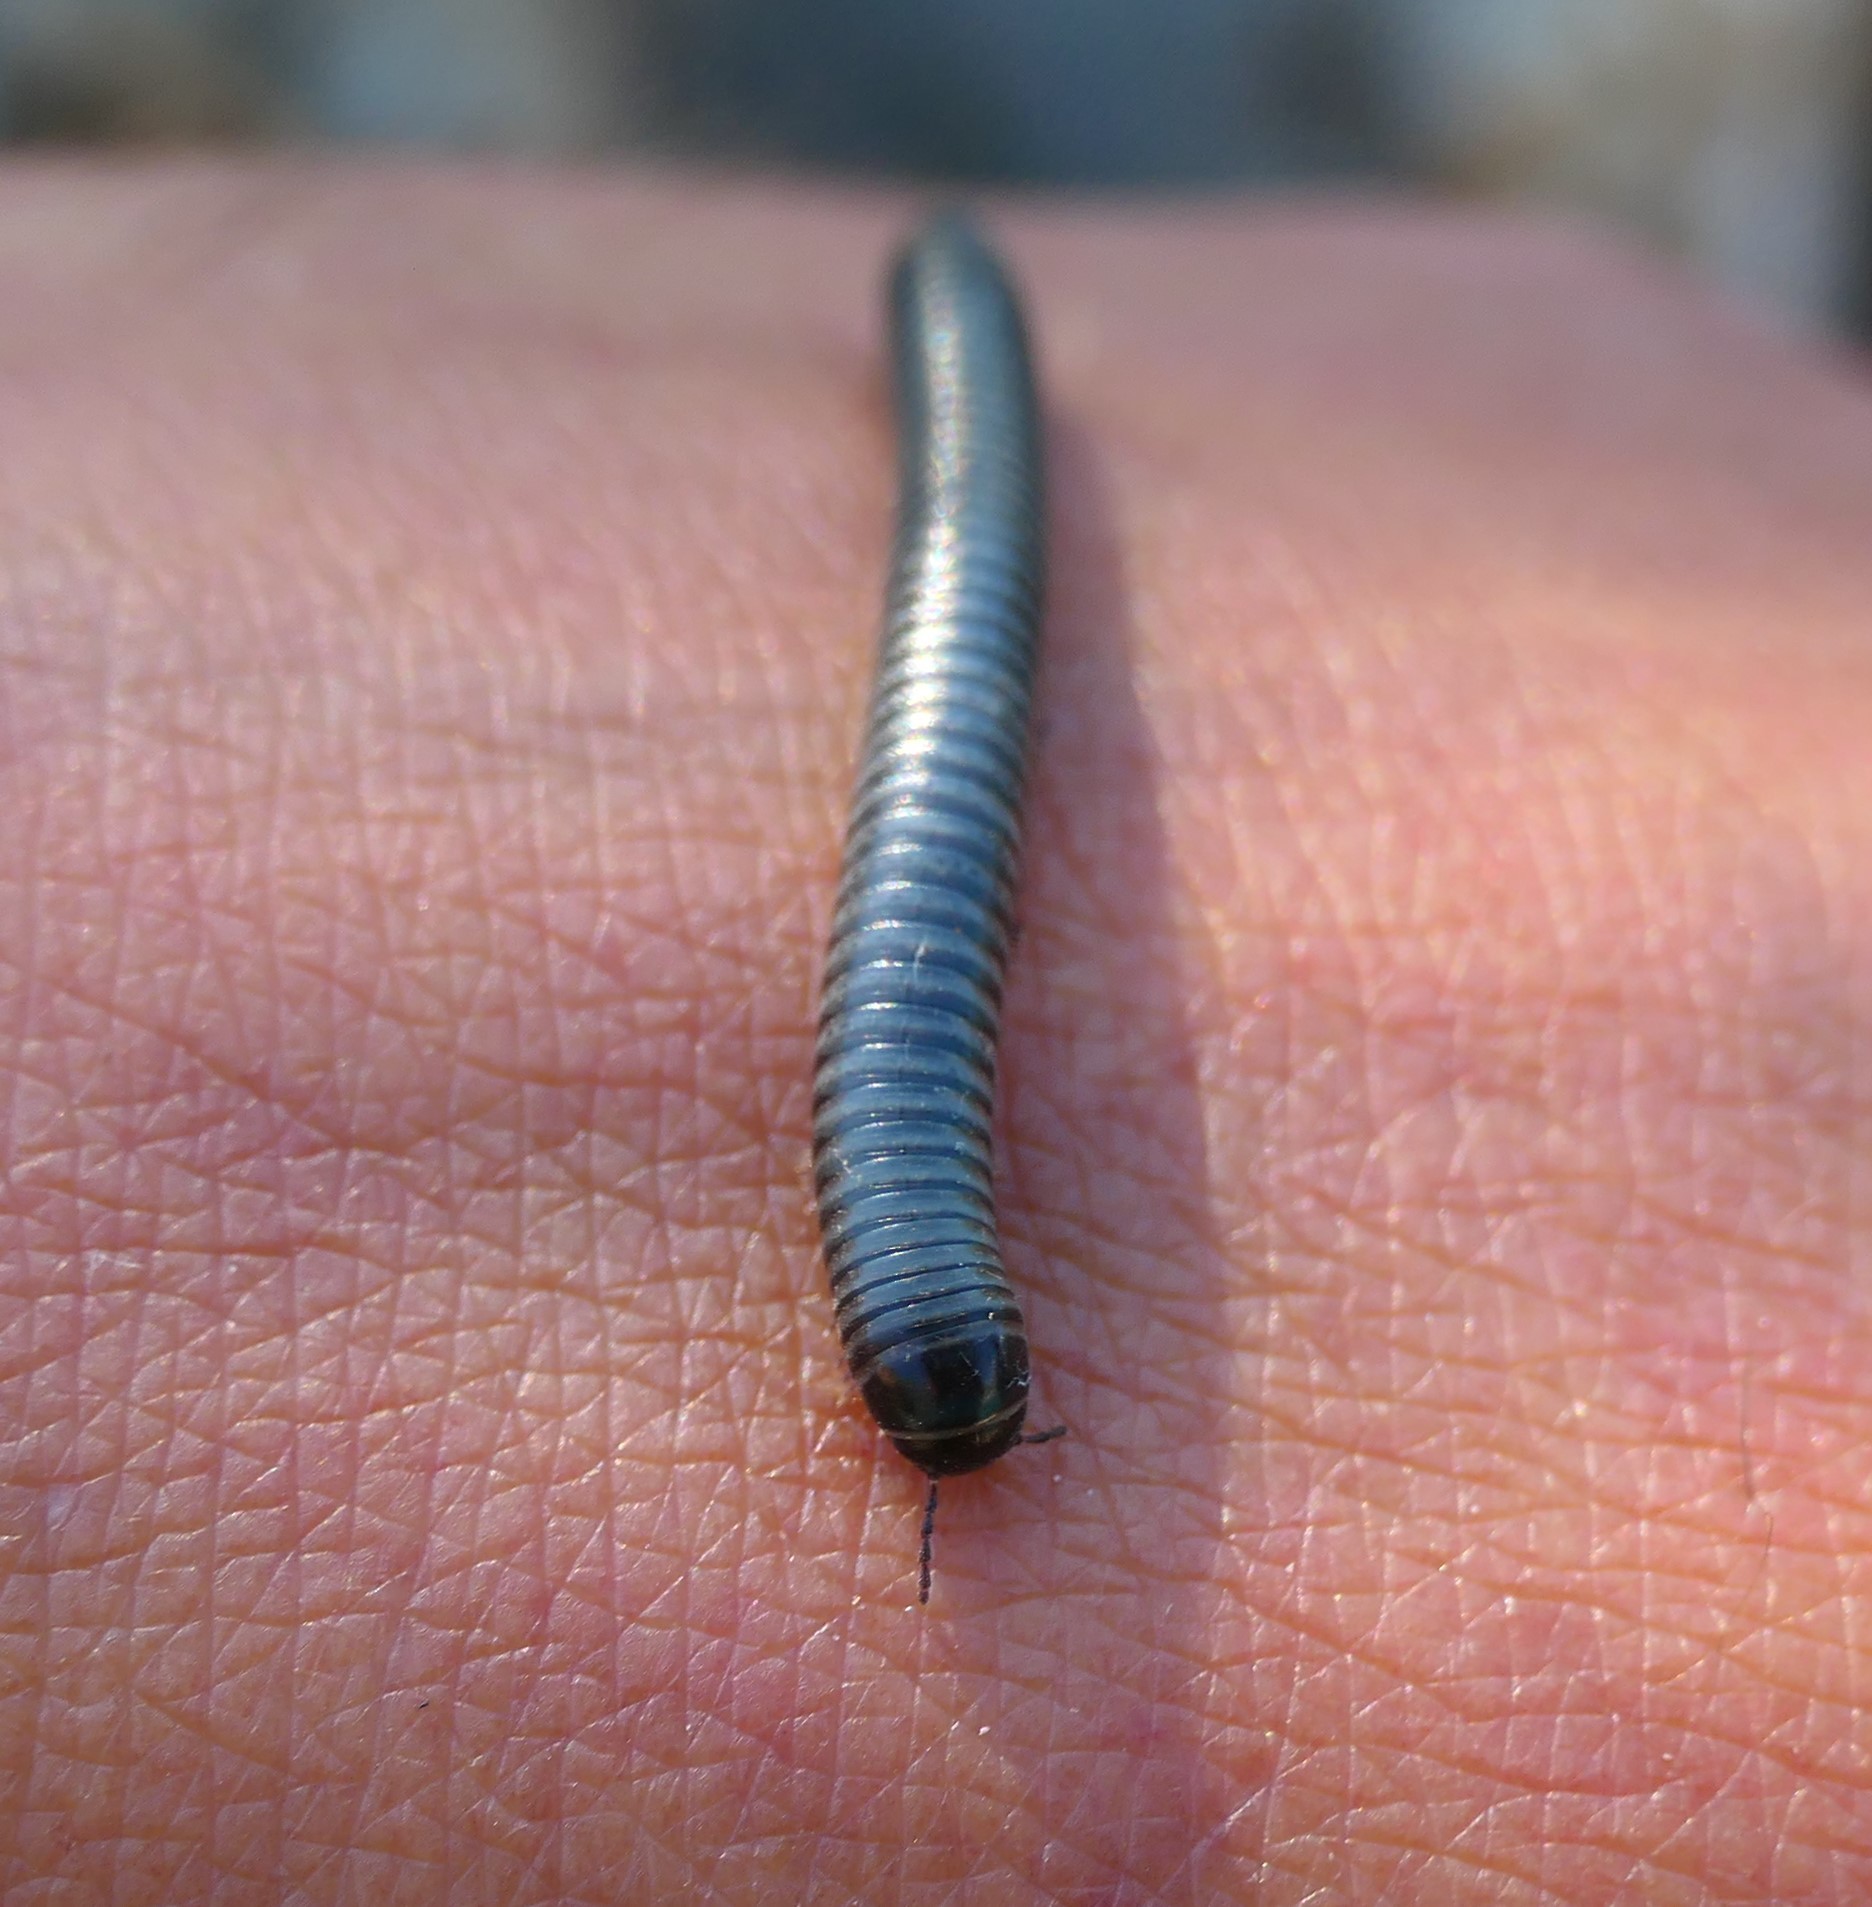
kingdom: Animalia
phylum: Arthropoda
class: Diplopoda
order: Julida
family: Julidae
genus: Acanthoiulus
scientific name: Acanthoiulus fuscipes
